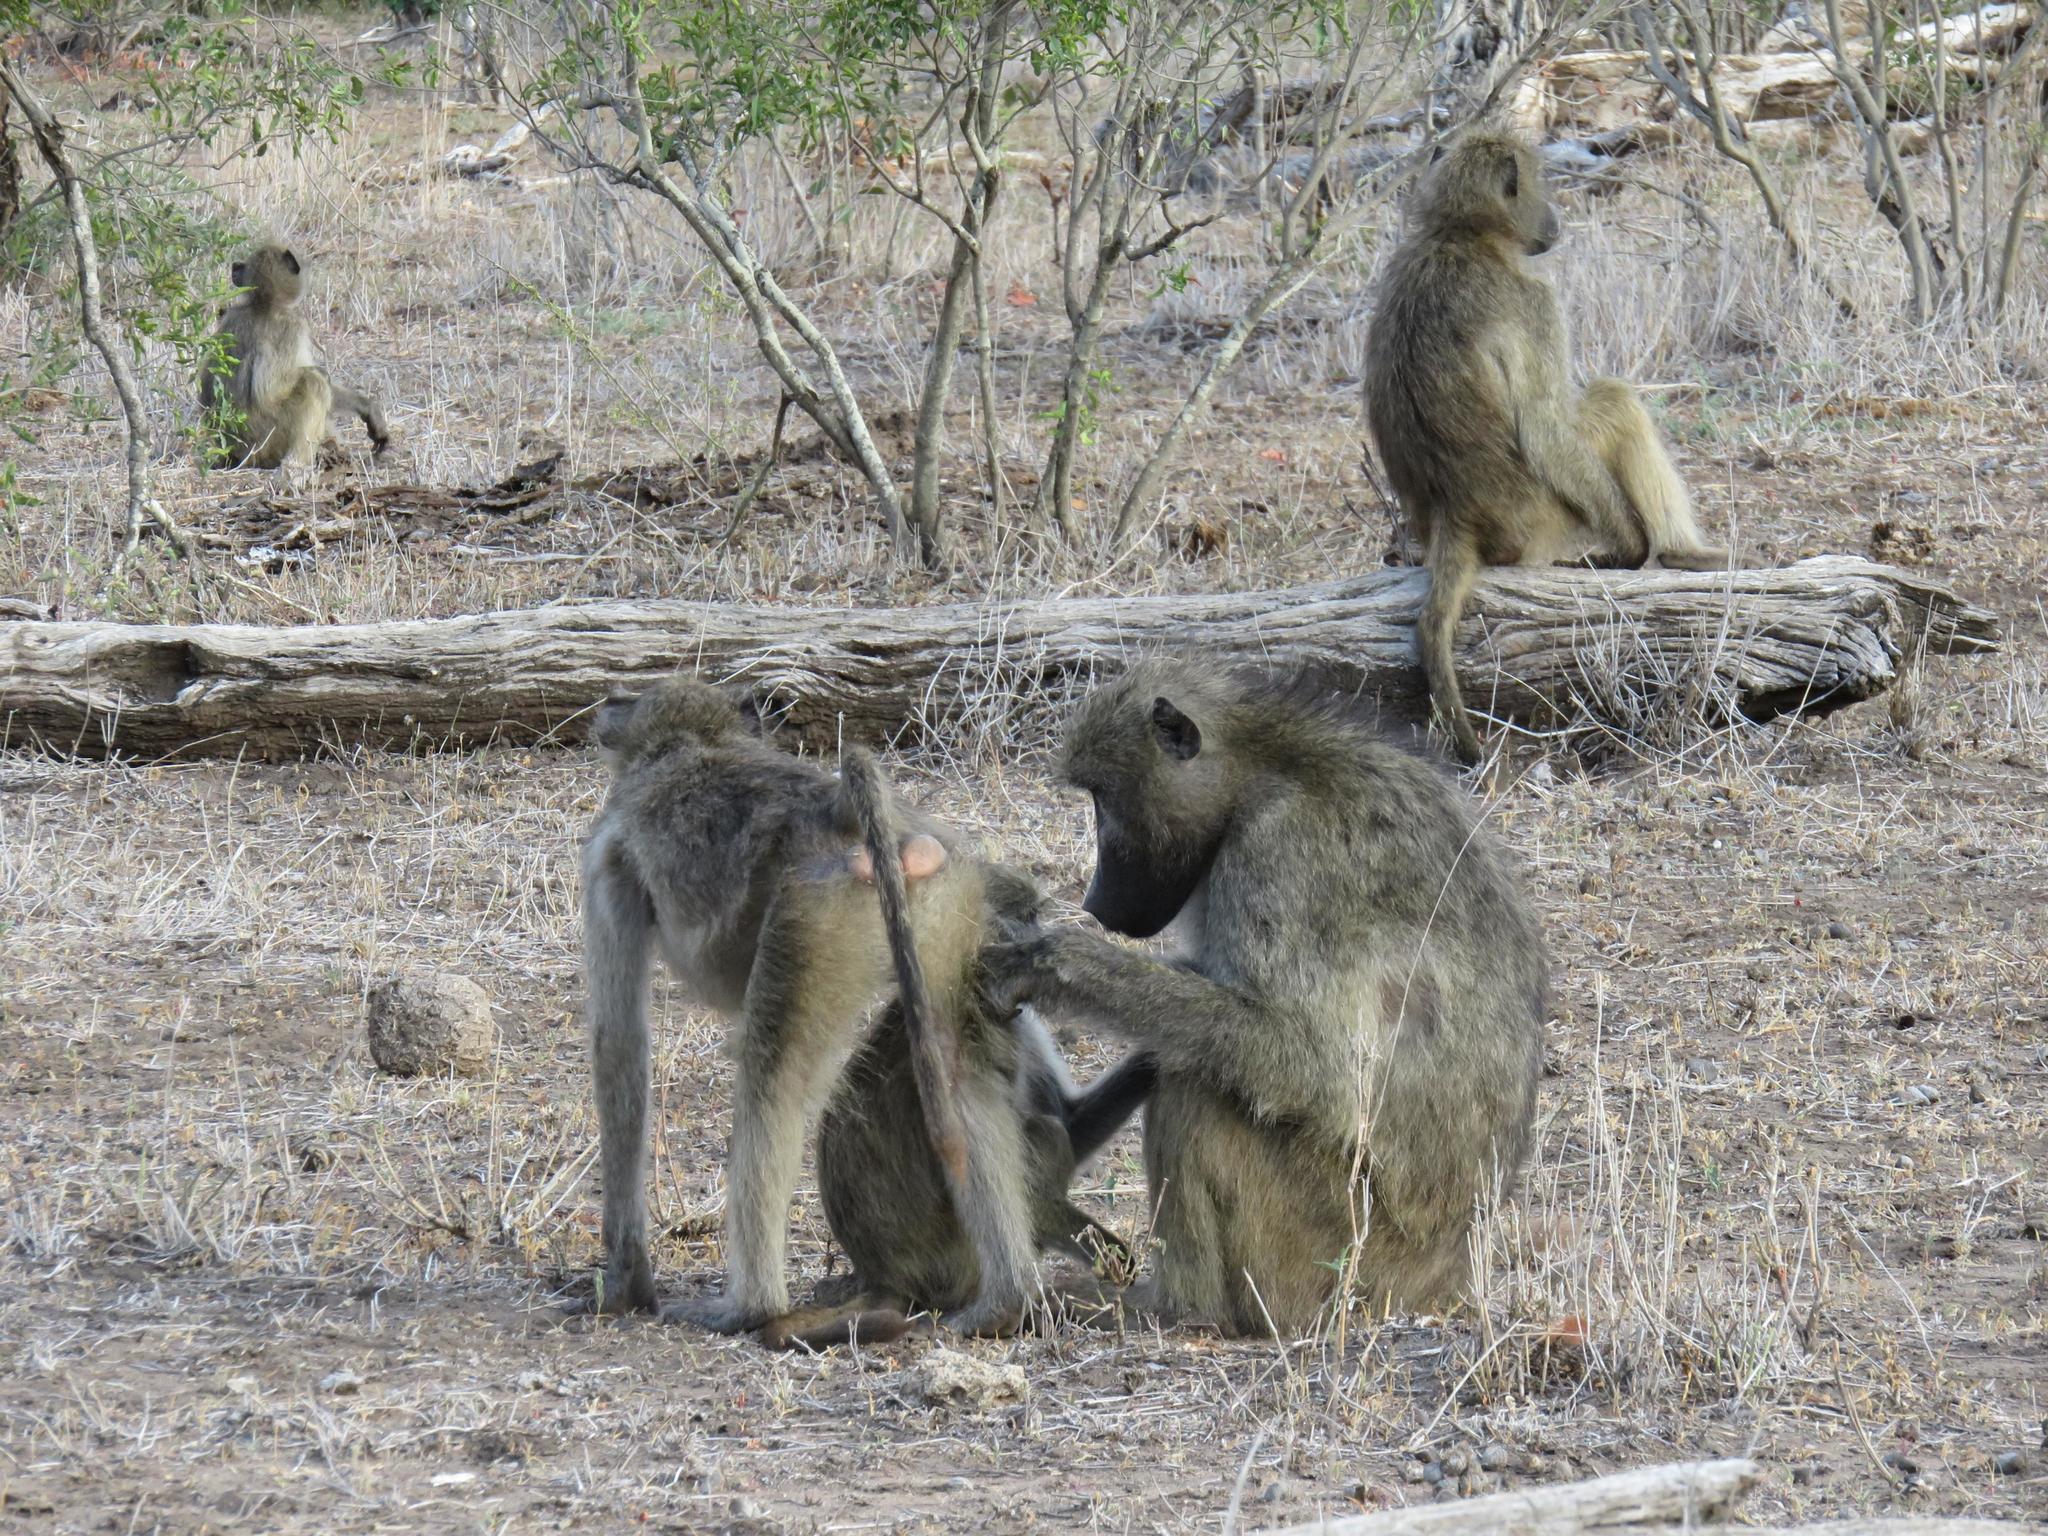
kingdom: Animalia
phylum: Chordata
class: Mammalia
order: Primates
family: Cercopithecidae
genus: Papio
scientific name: Papio ursinus
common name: Chacma baboon
